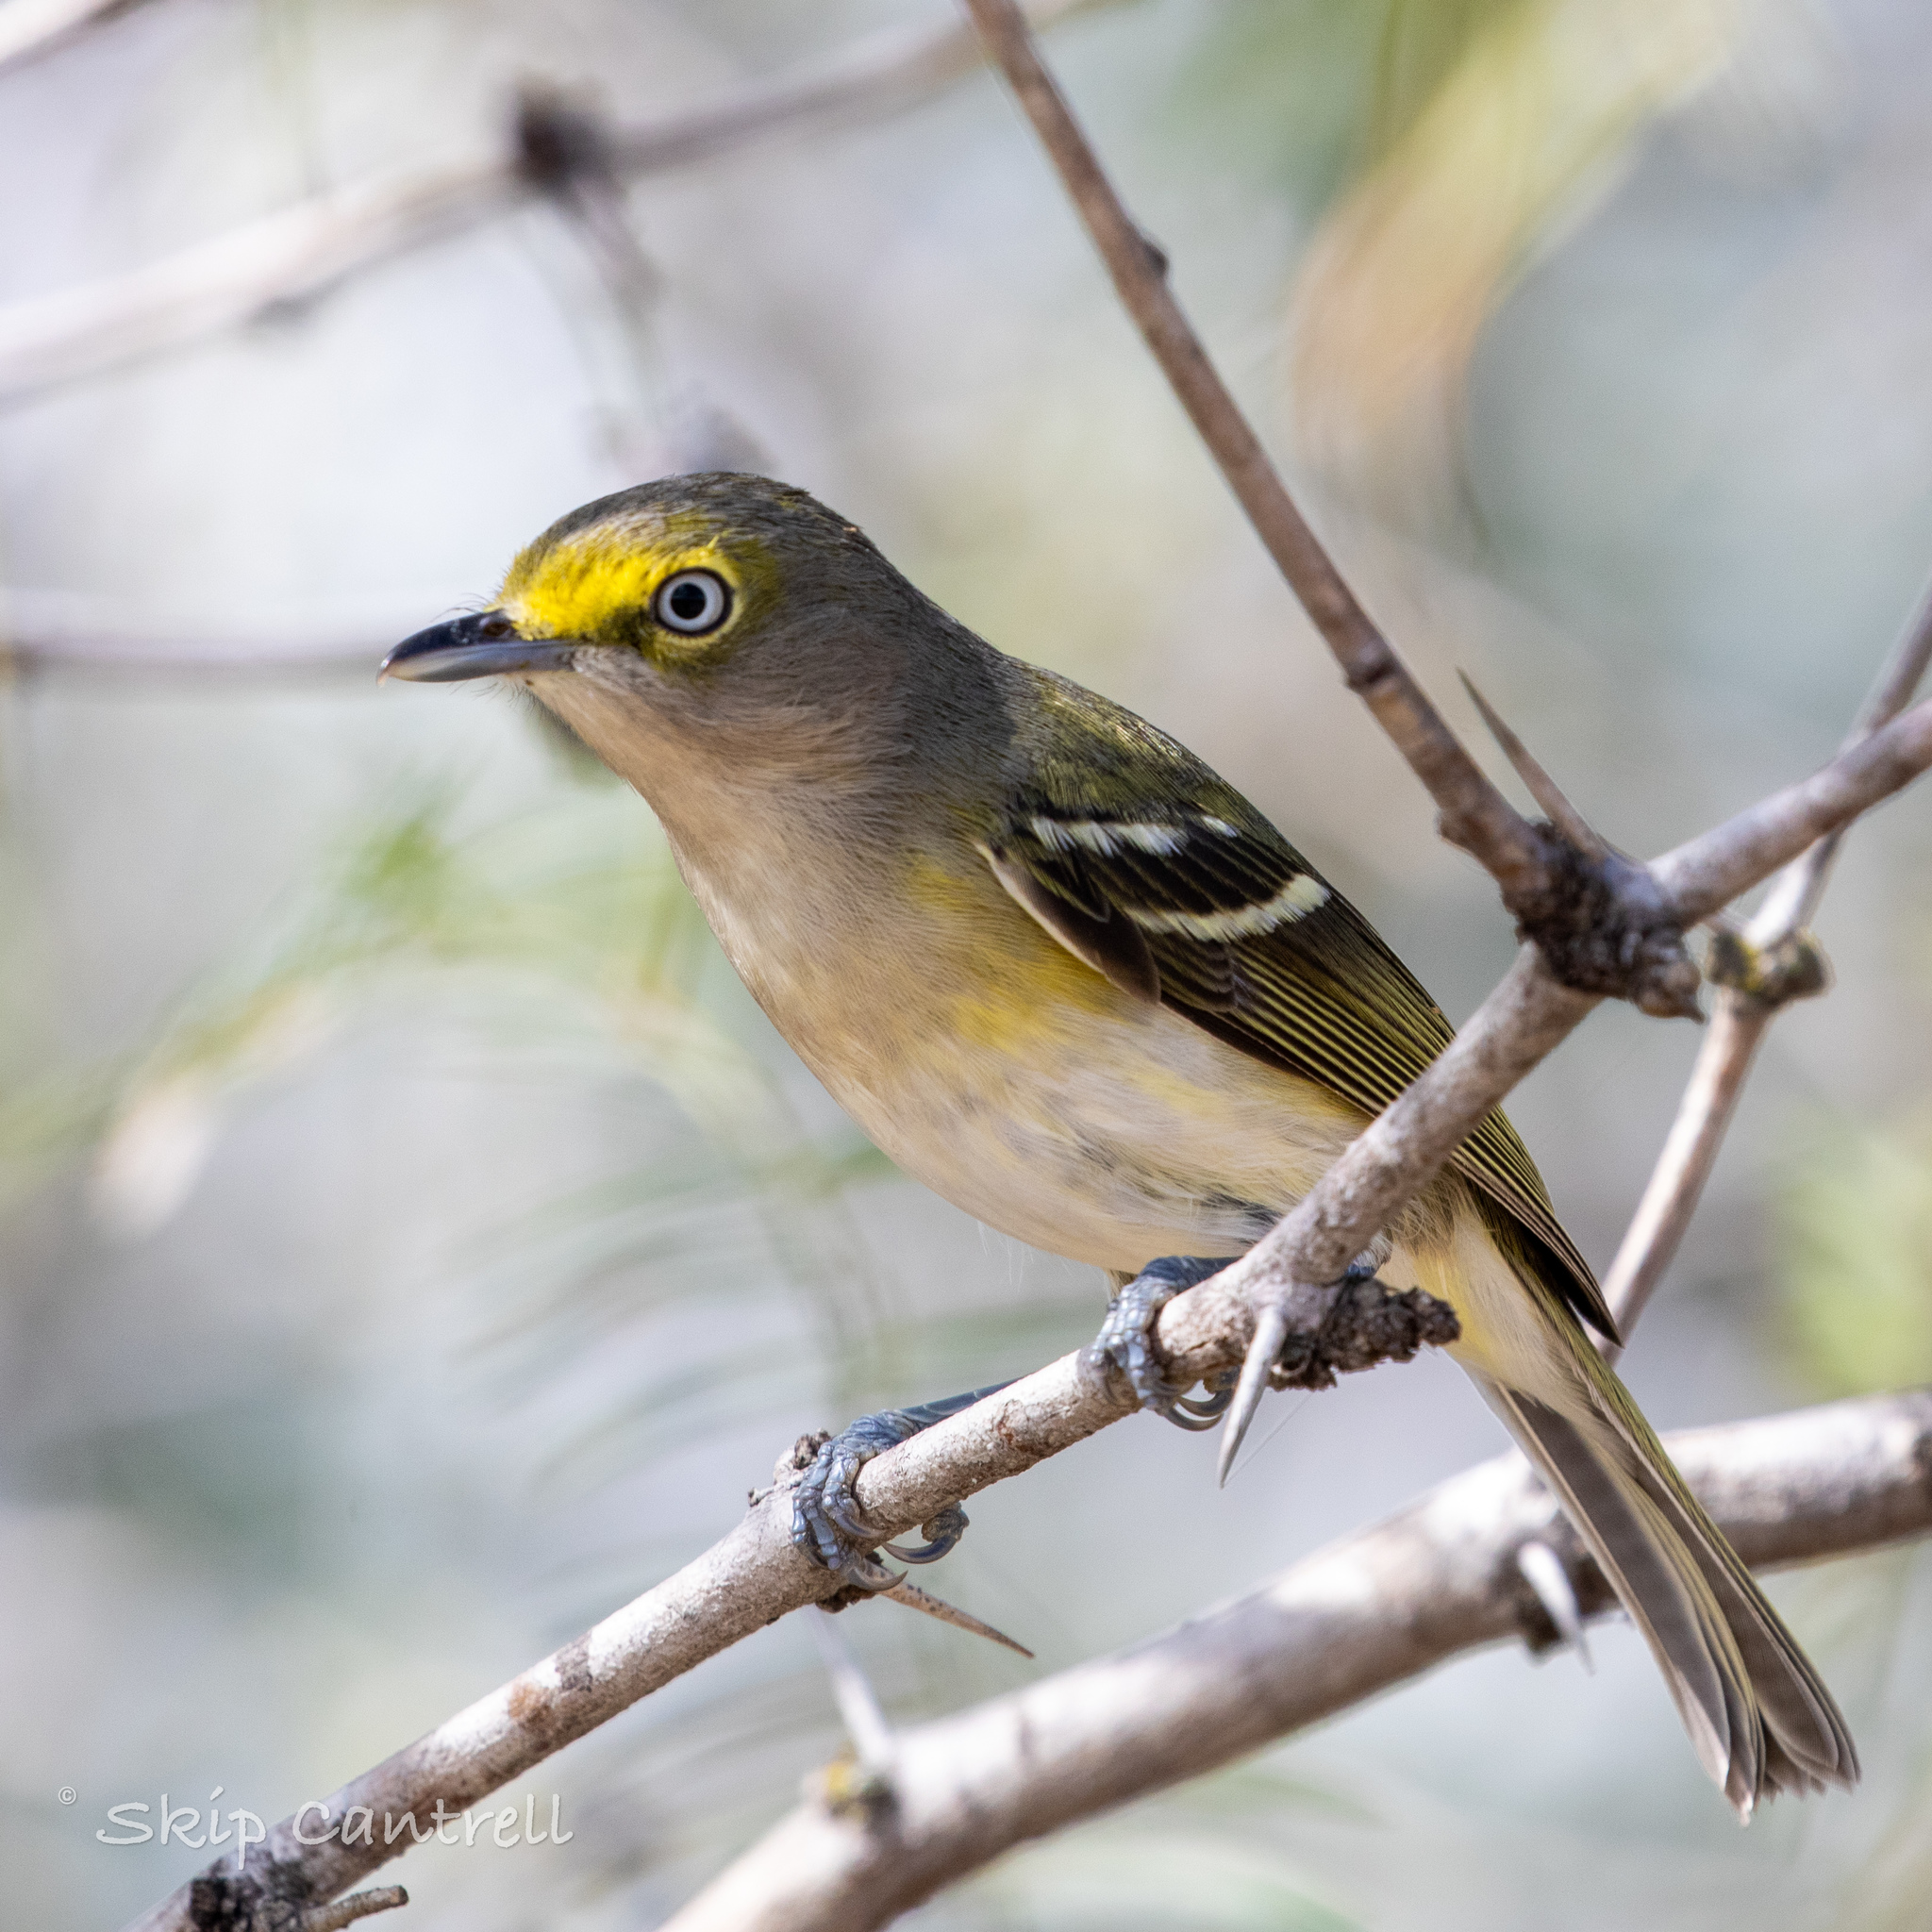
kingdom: Animalia
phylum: Chordata
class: Aves
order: Passeriformes
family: Vireonidae
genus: Vireo
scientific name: Vireo griseus
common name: White-eyed vireo
